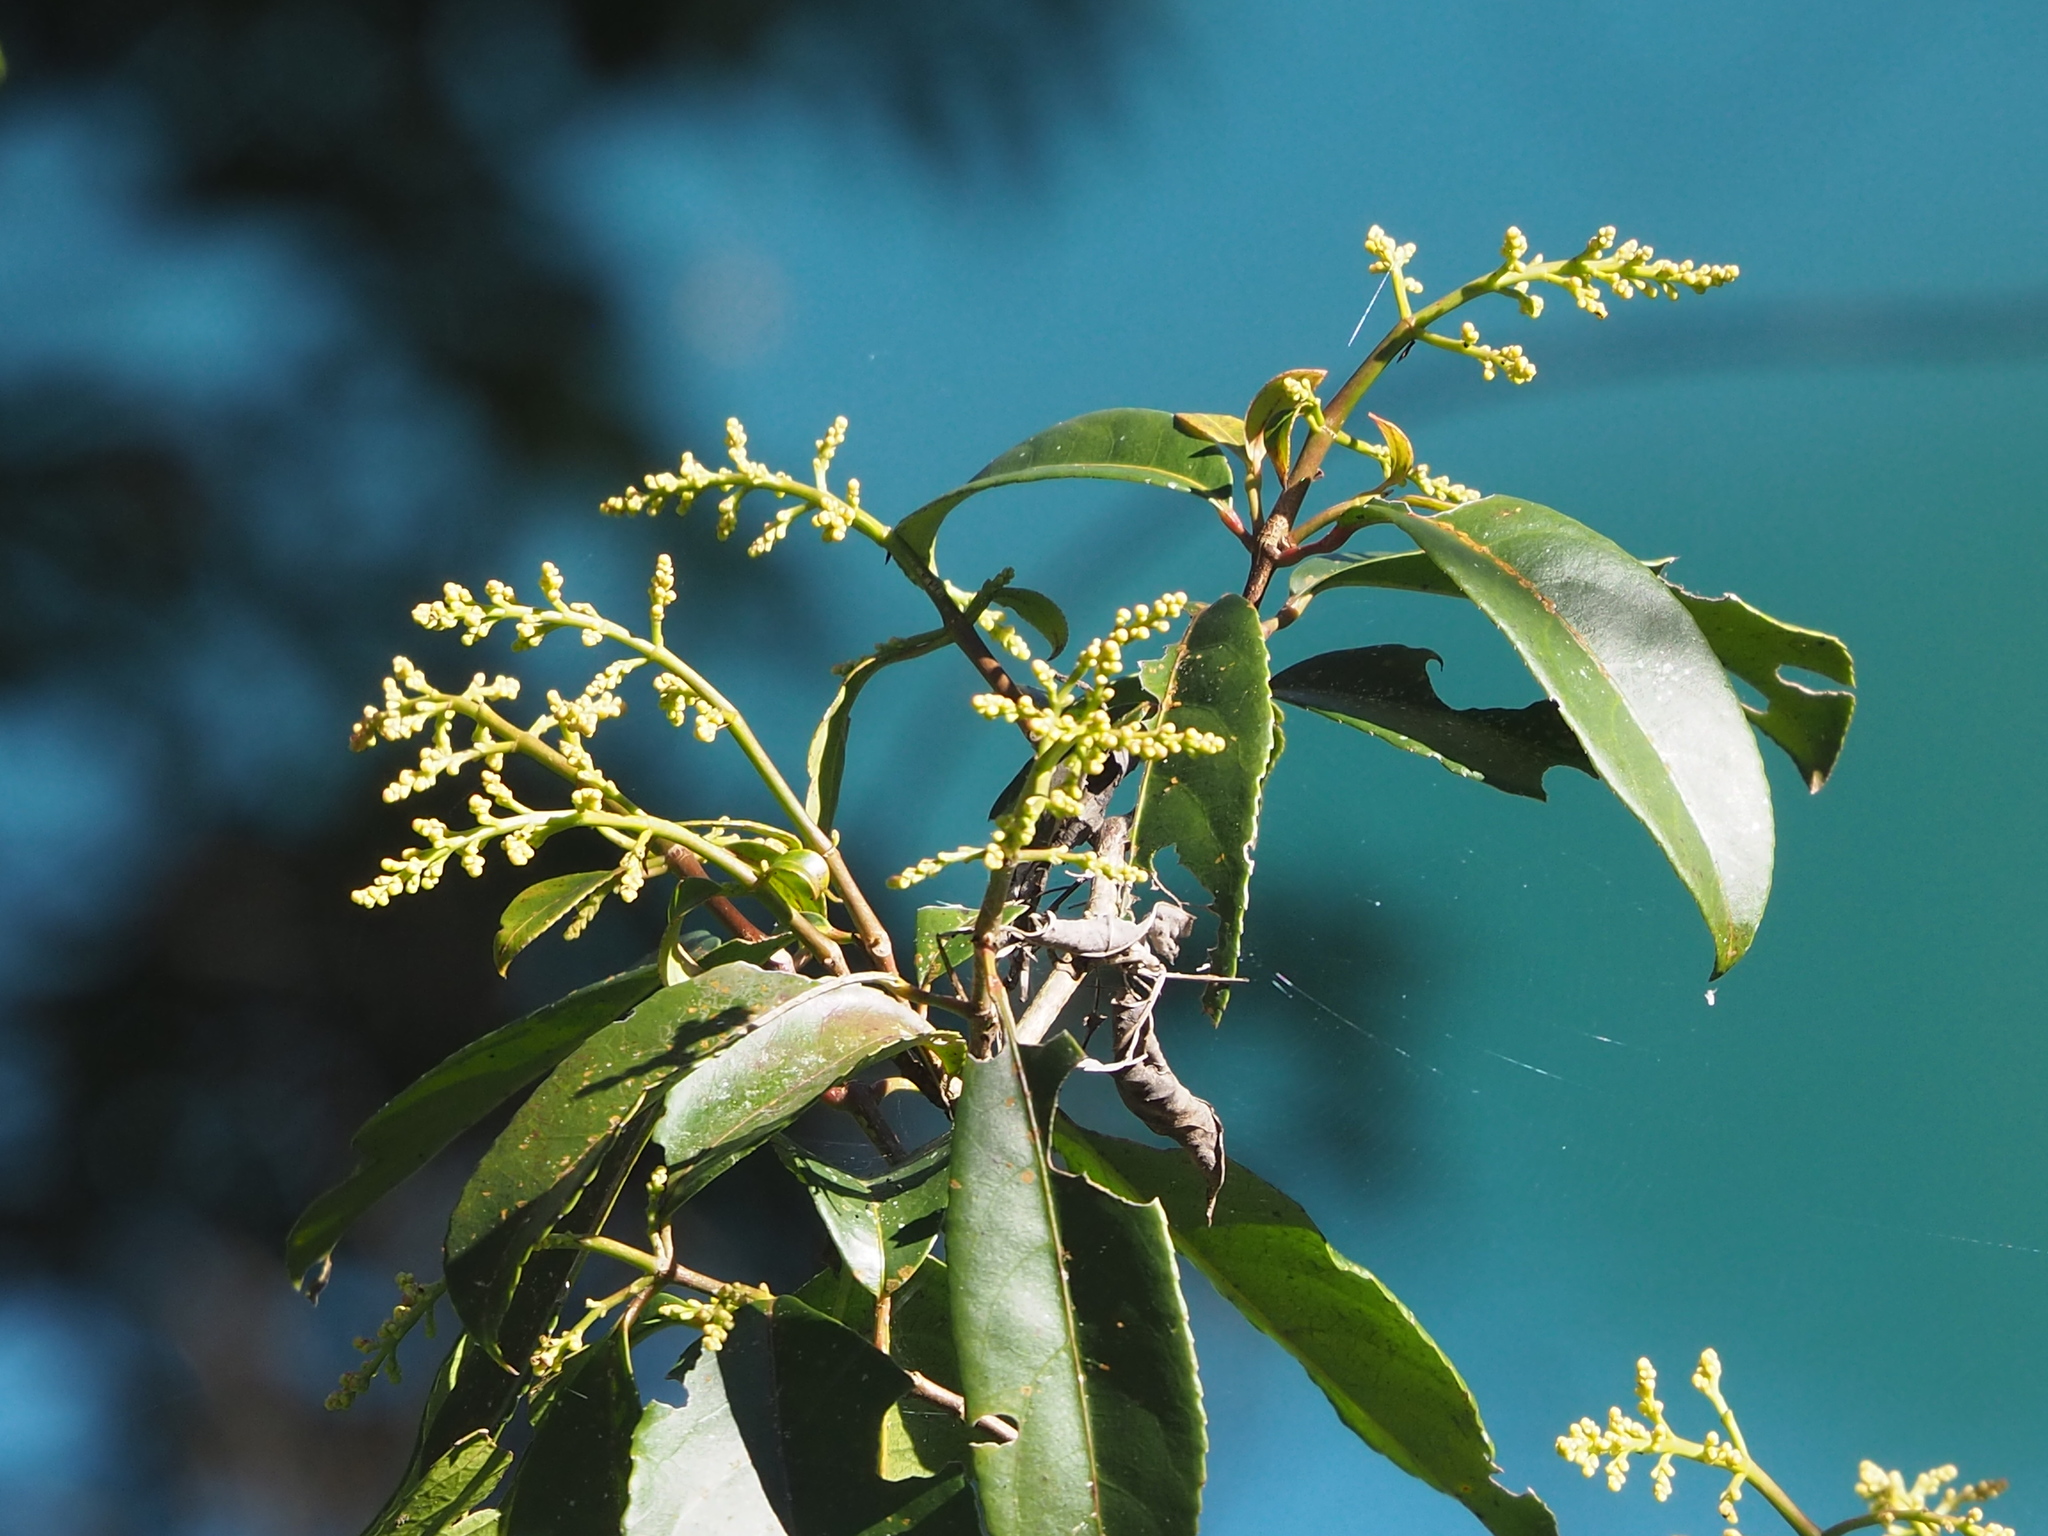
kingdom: Plantae
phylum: Tracheophyta
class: Magnoliopsida
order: Crossosomatales
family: Staphyleaceae
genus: Turpinia
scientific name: Turpinia formosana
